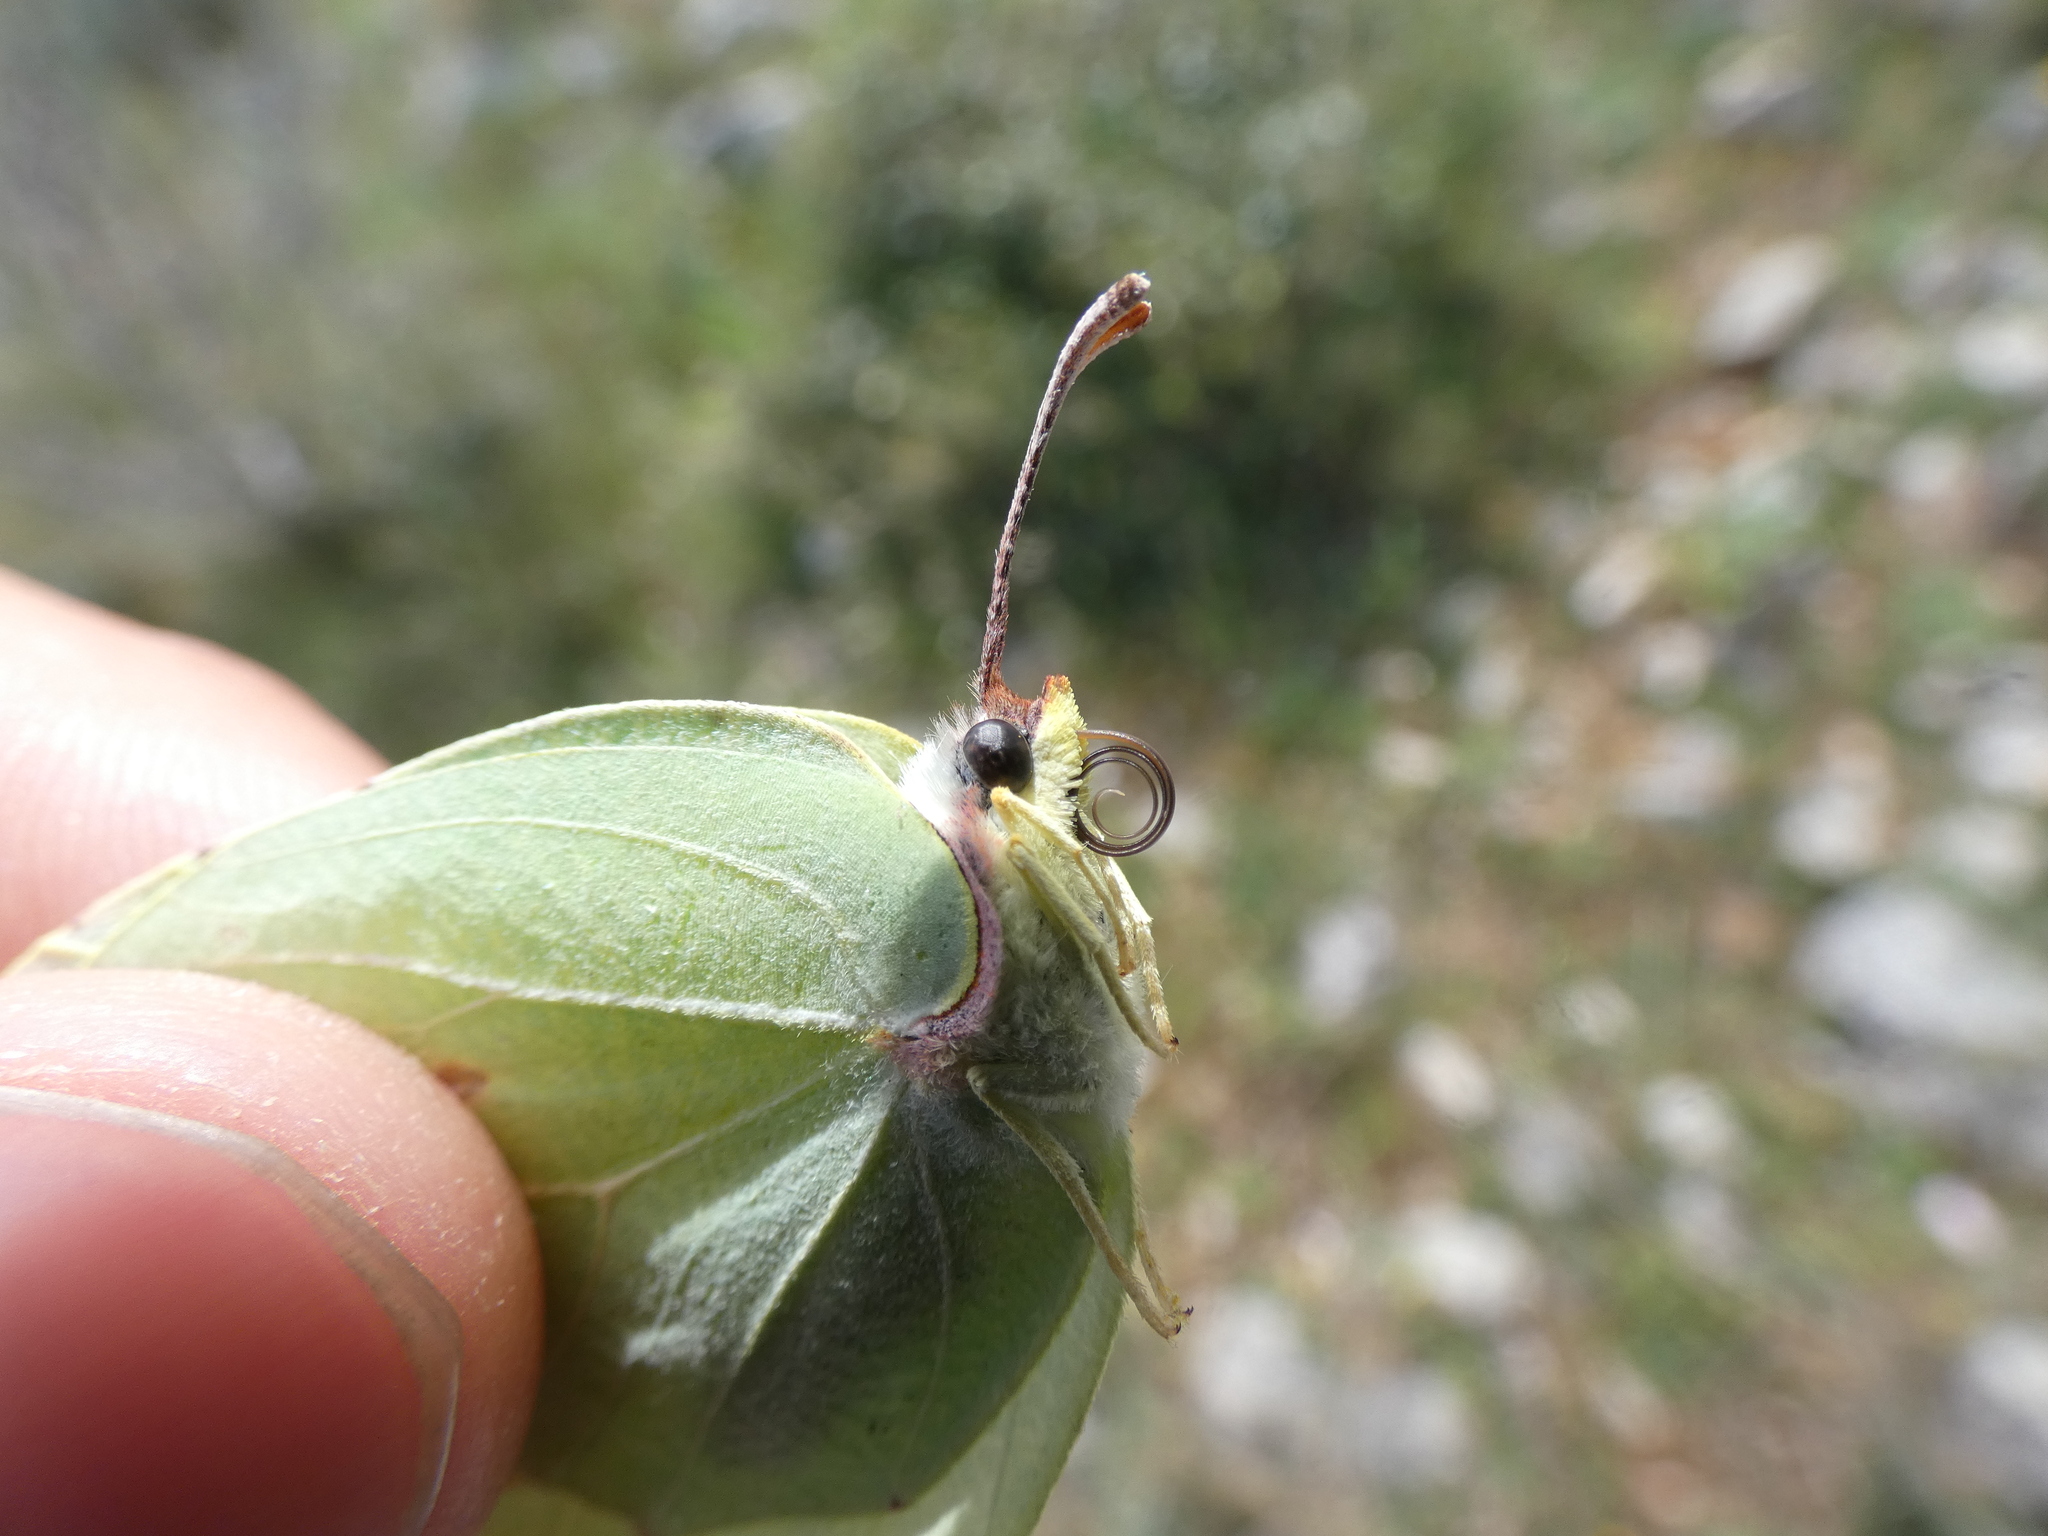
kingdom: Animalia
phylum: Arthropoda
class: Insecta
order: Lepidoptera
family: Pieridae
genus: Gonepteryx
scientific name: Gonepteryx cleopatra
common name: Cleopatra
